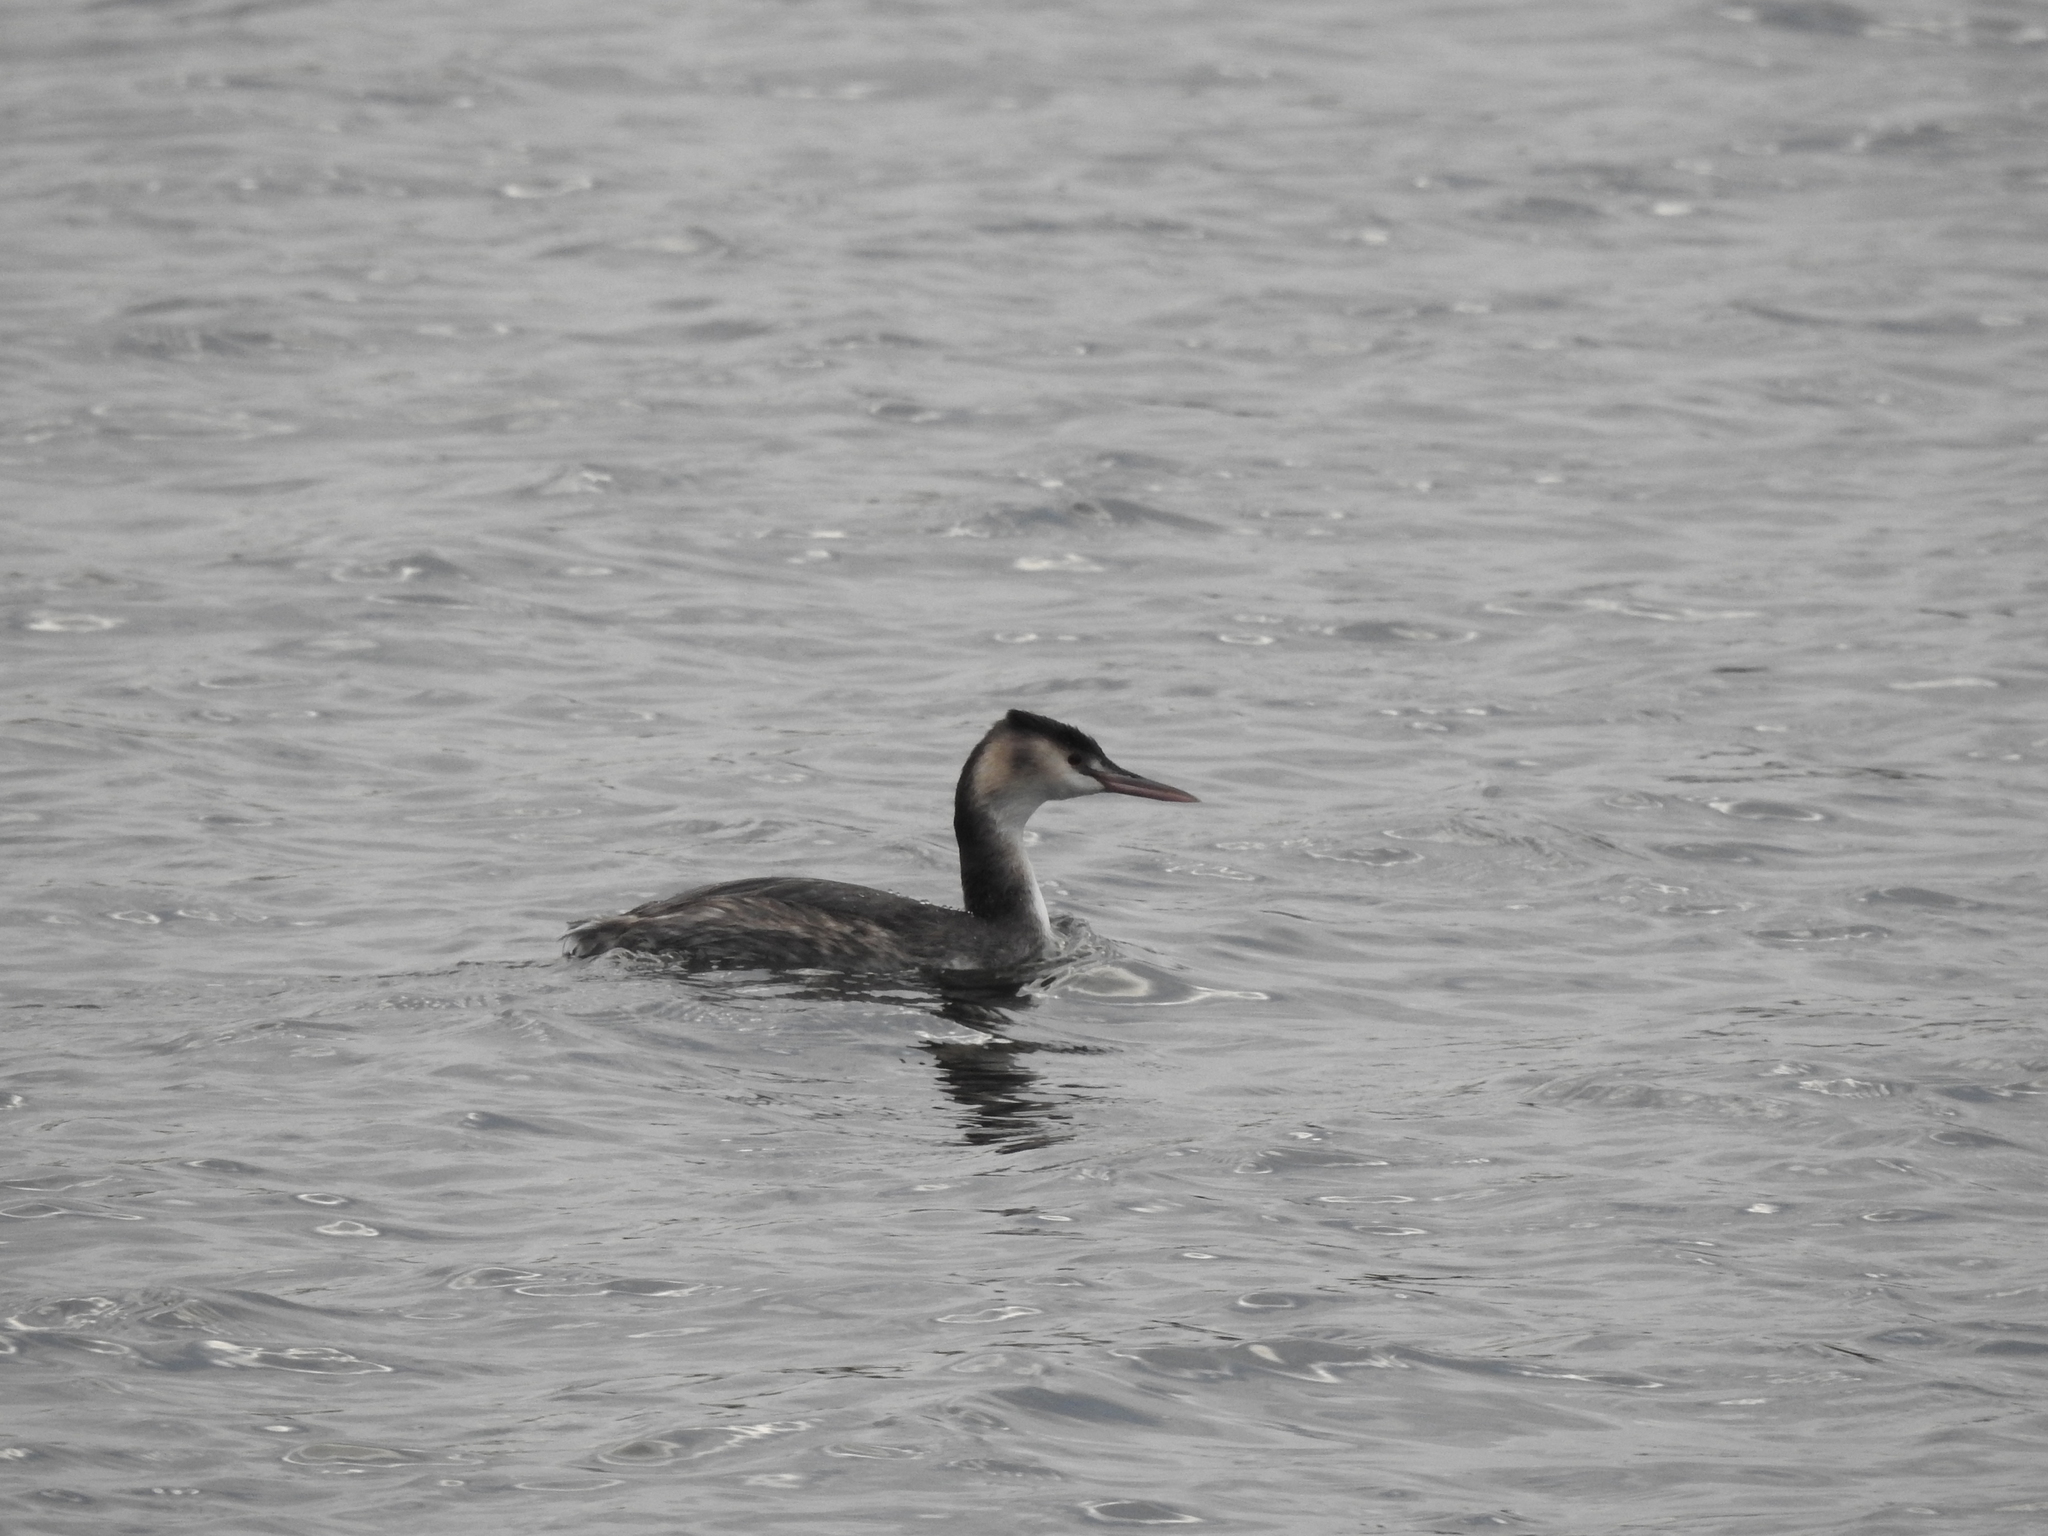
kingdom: Animalia
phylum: Chordata
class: Aves
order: Podicipediformes
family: Podicipedidae
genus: Podiceps
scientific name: Podiceps cristatus
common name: Great crested grebe
